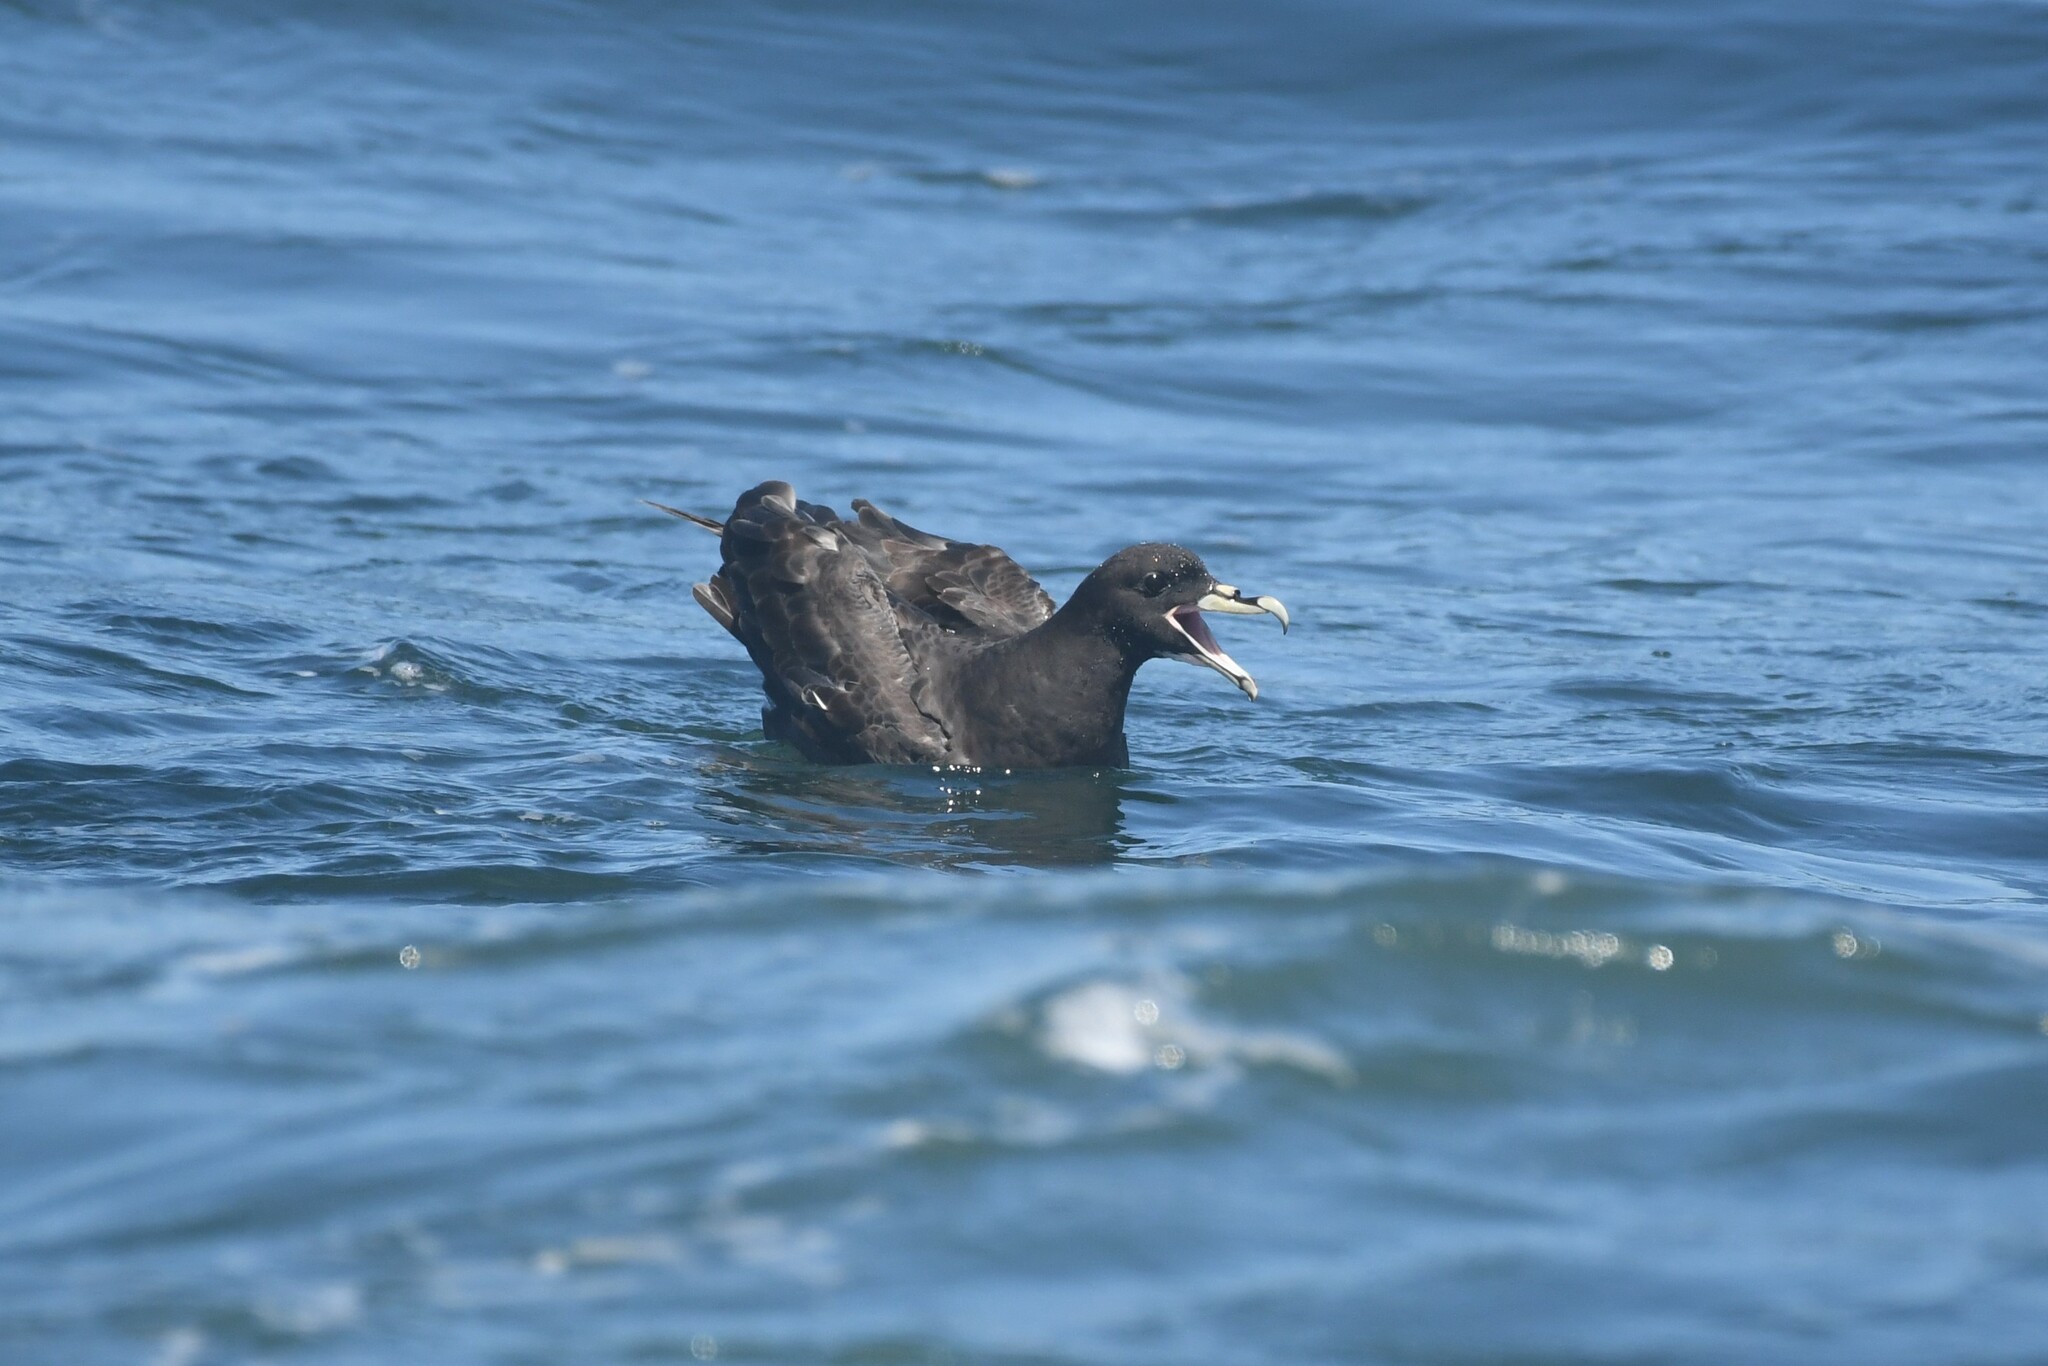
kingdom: Animalia
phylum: Chordata
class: Aves
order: Procellariiformes
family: Procellariidae
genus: Procellaria
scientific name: Procellaria aequinoctialis
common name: White-chinned petrel
